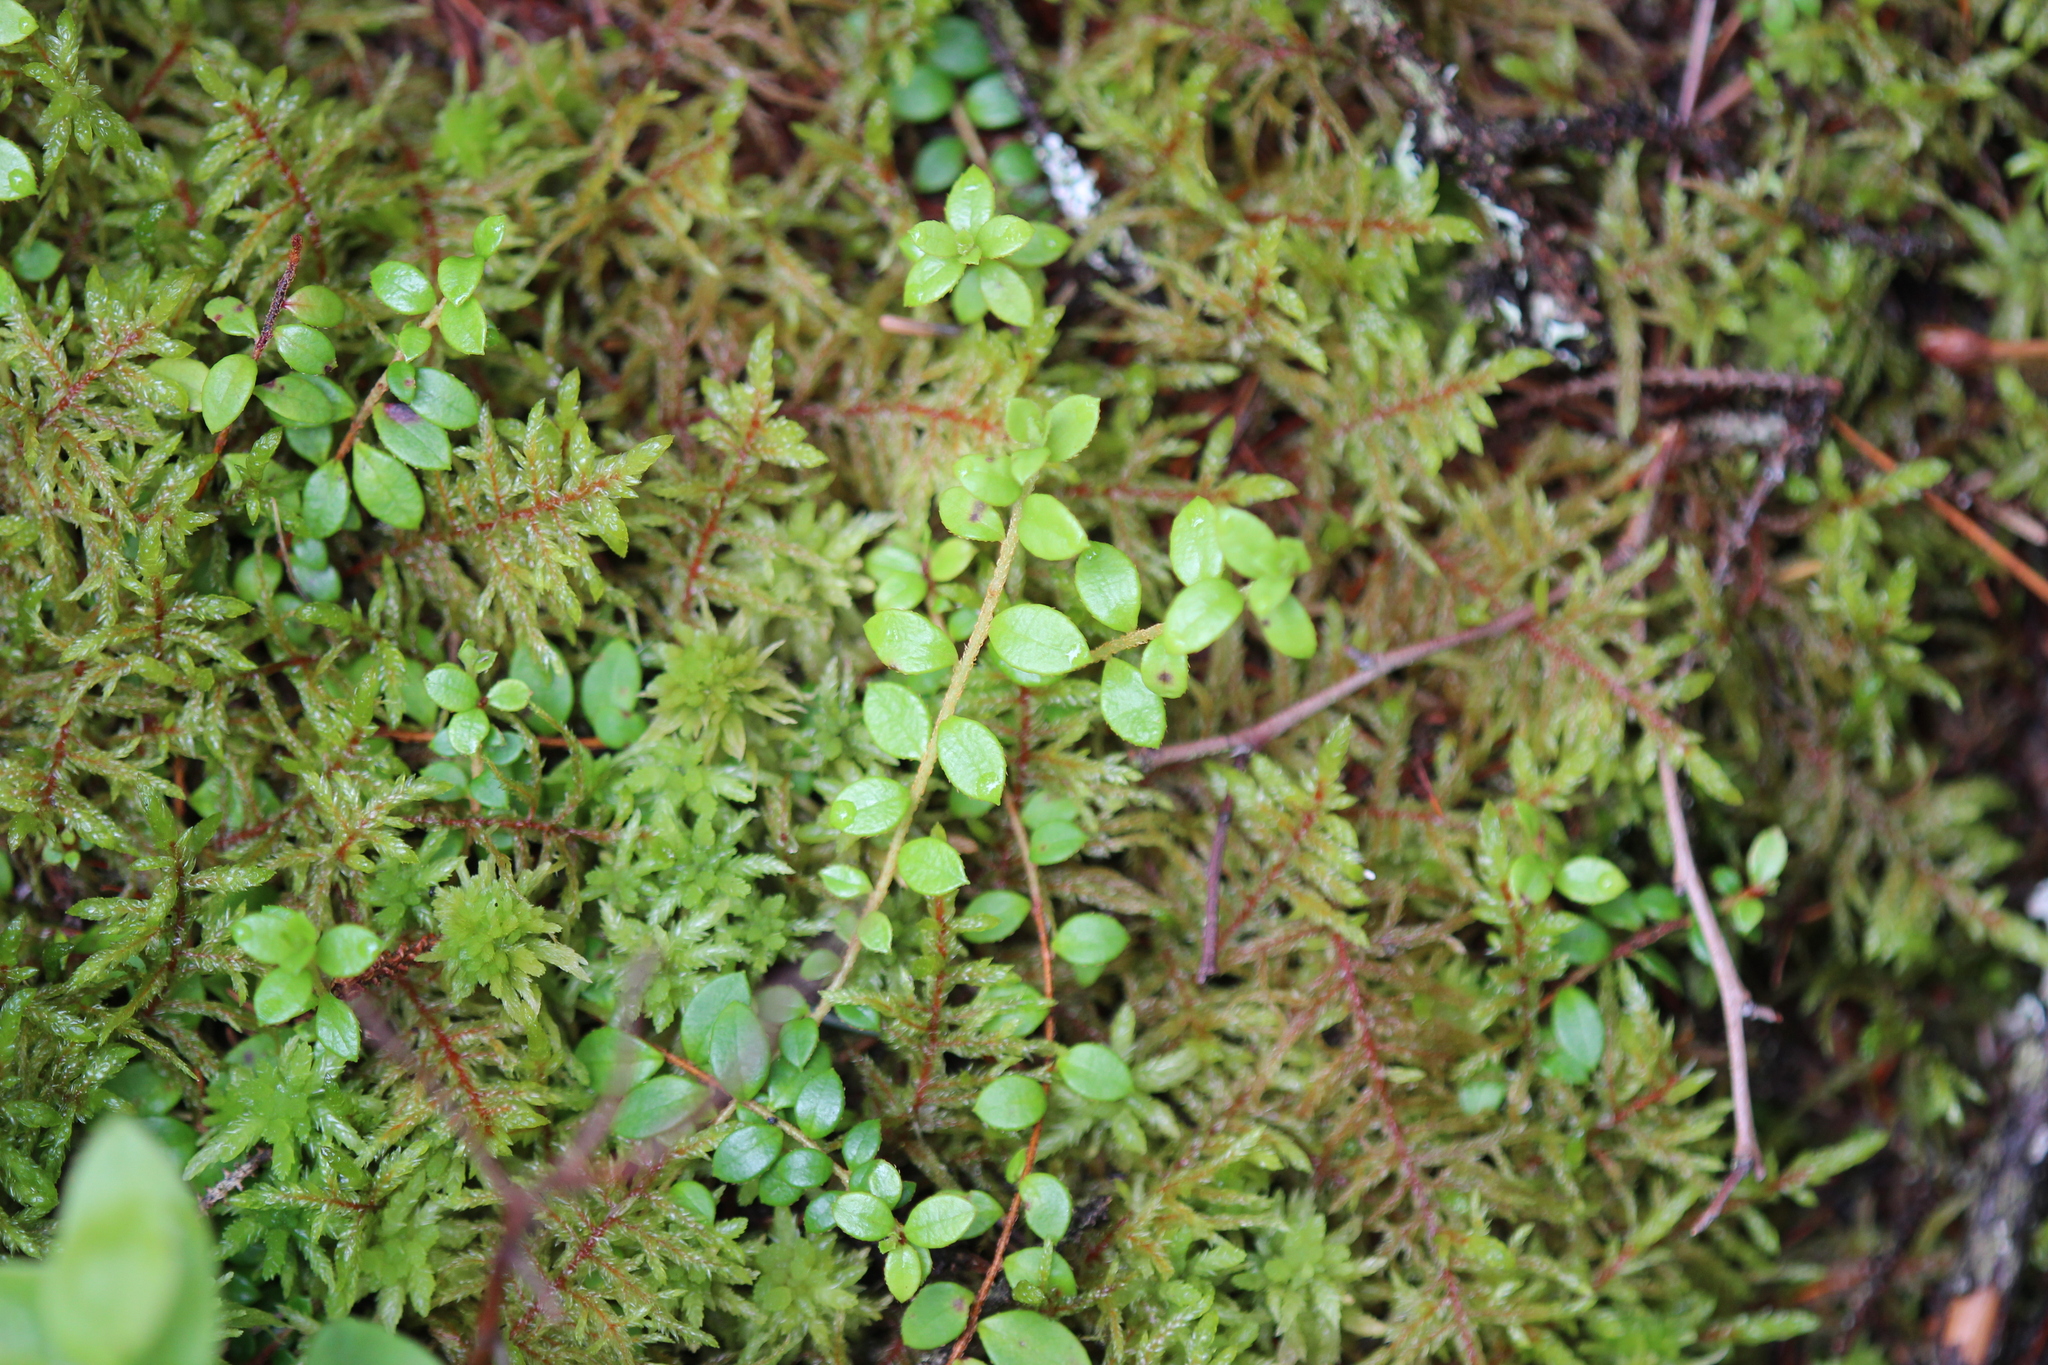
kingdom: Plantae
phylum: Tracheophyta
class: Magnoliopsida
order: Ericales
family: Ericaceae
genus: Gaultheria
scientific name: Gaultheria hispidula
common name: Cancer wintergreen
